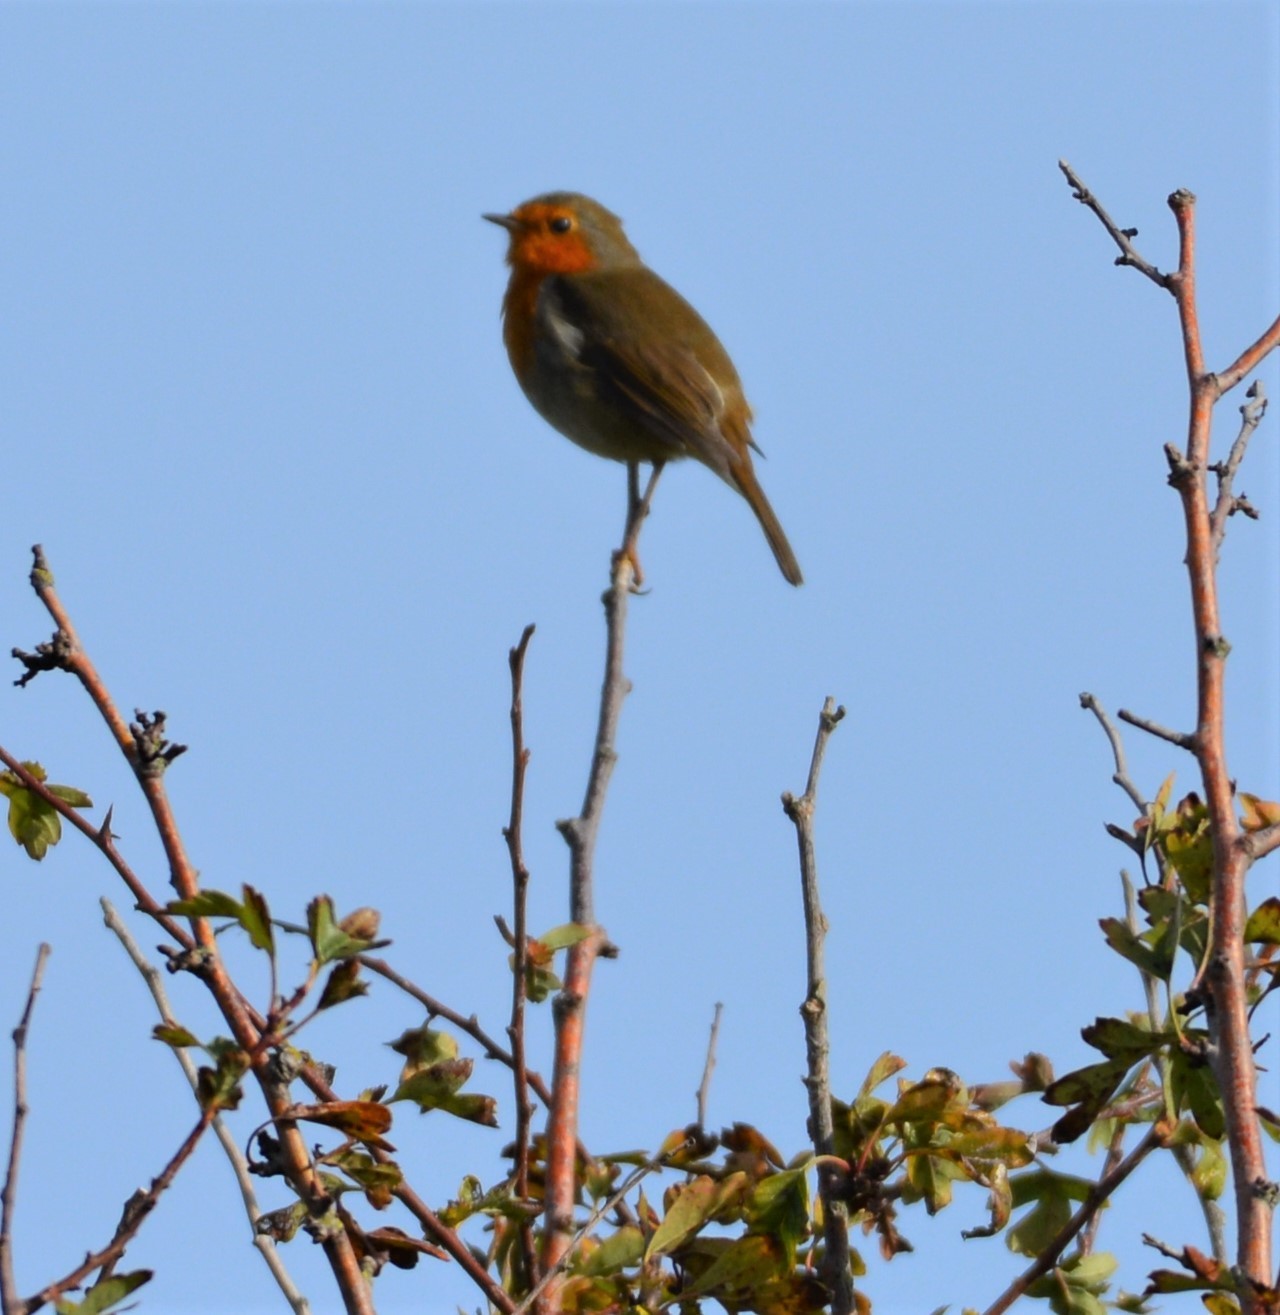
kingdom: Animalia
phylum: Chordata
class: Aves
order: Passeriformes
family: Muscicapidae
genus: Erithacus
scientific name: Erithacus rubecula
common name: European robin
